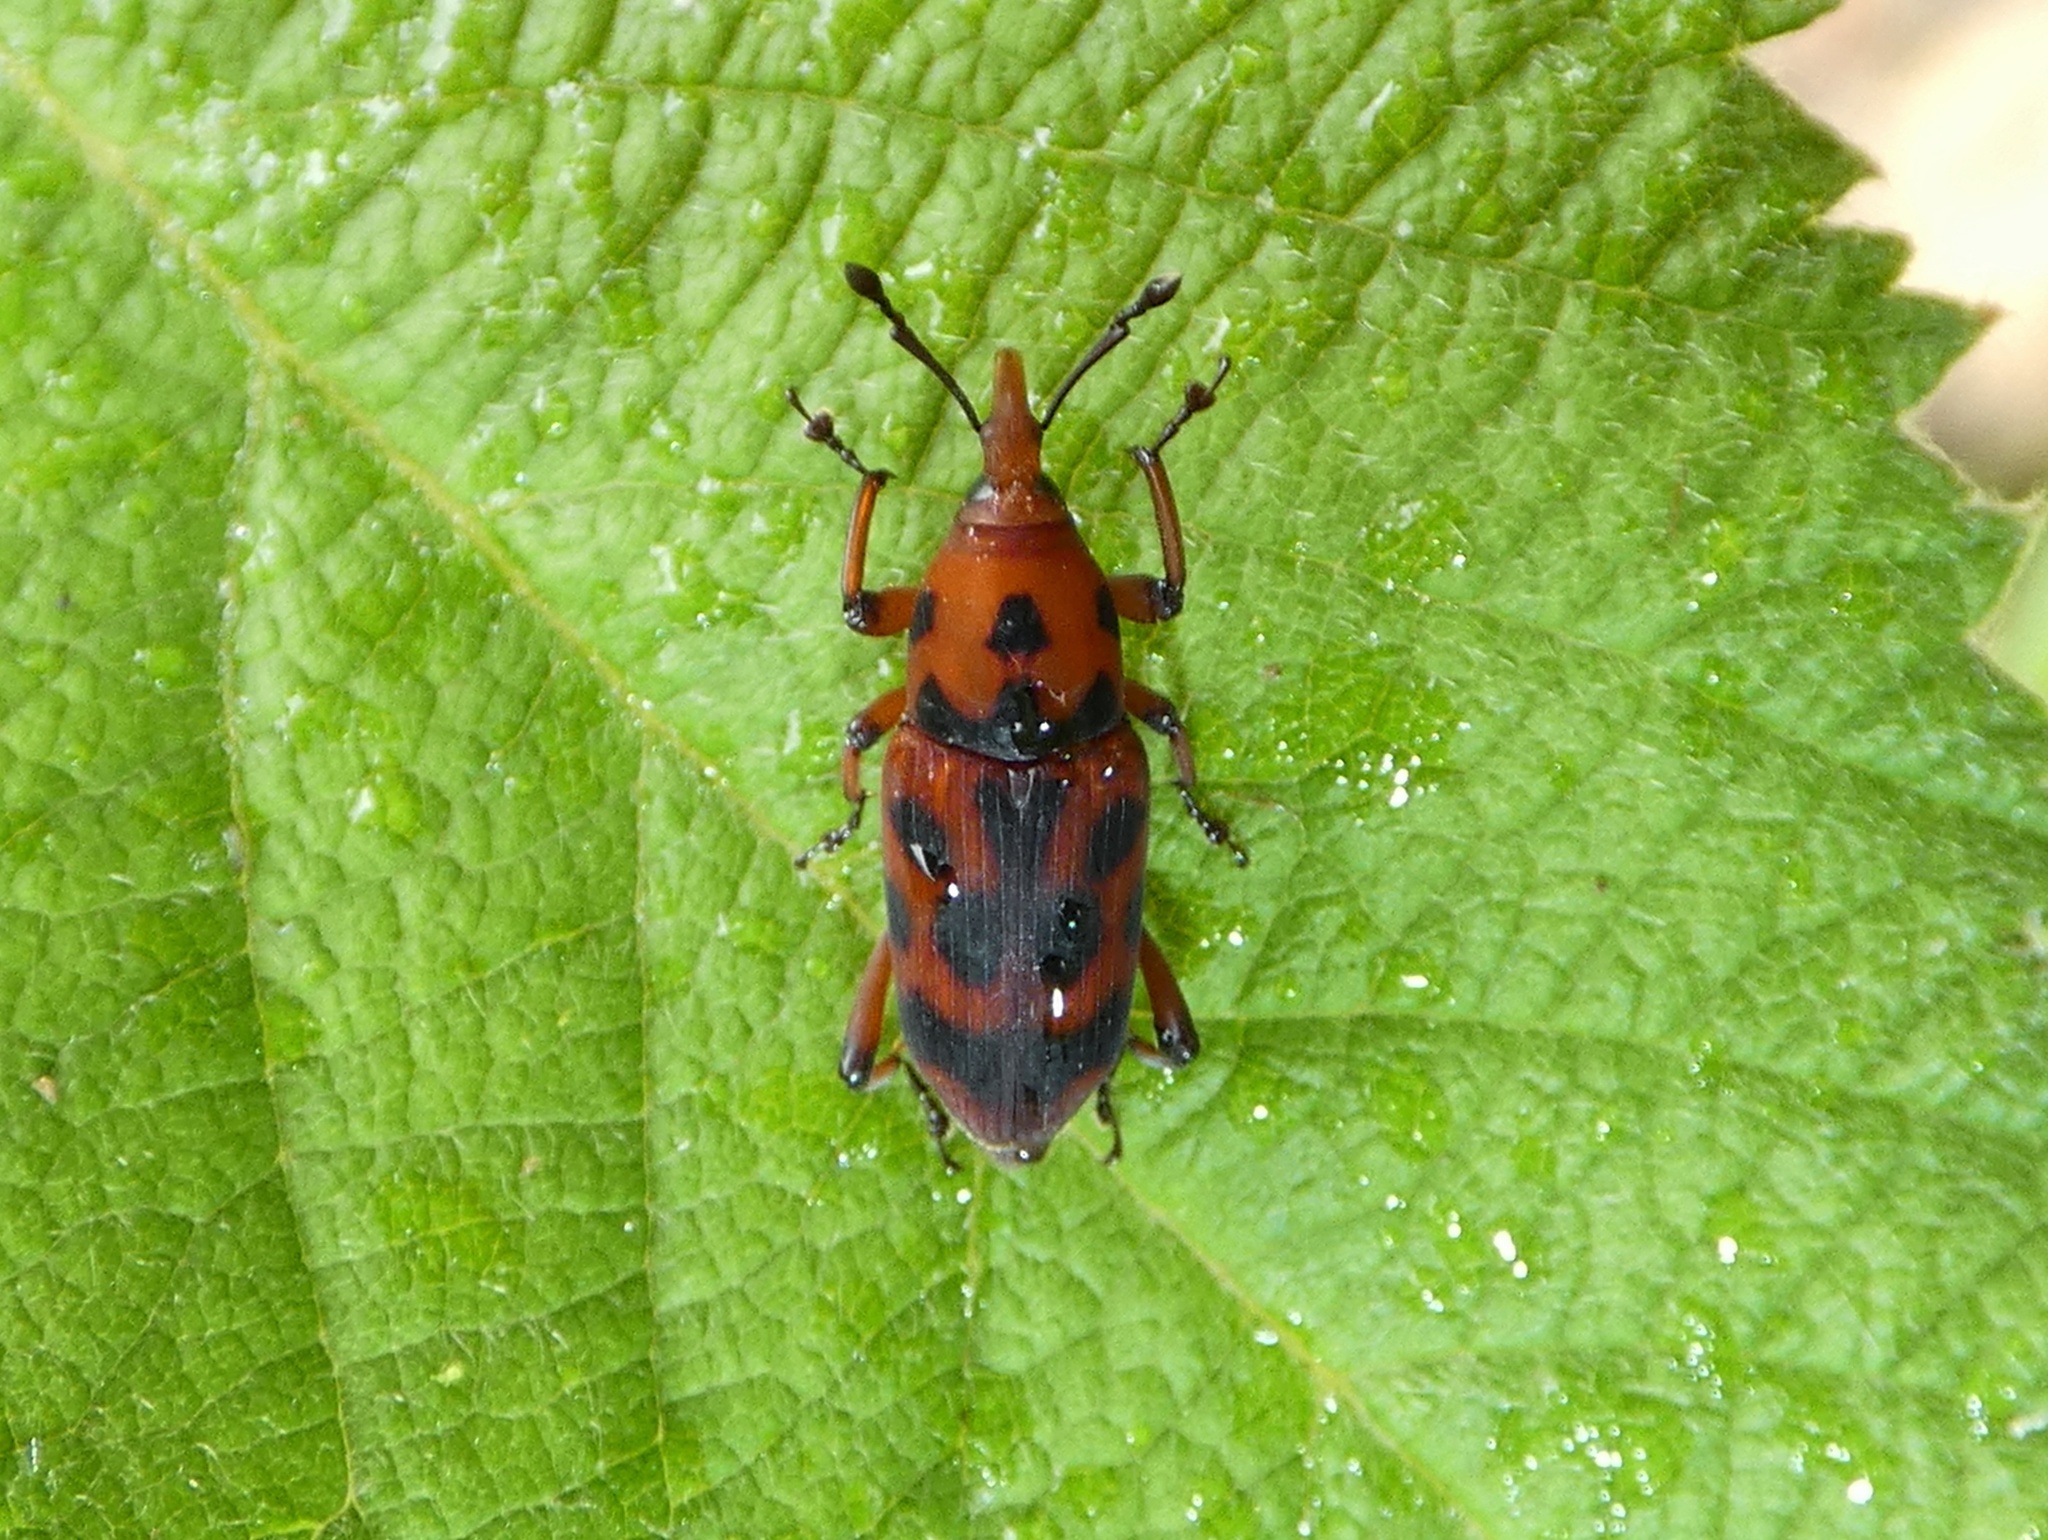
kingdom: Animalia
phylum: Arthropoda
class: Insecta
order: Coleoptera
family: Dryophthoridae
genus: Rhodobaenus
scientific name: Rhodobaenus pantherinus
